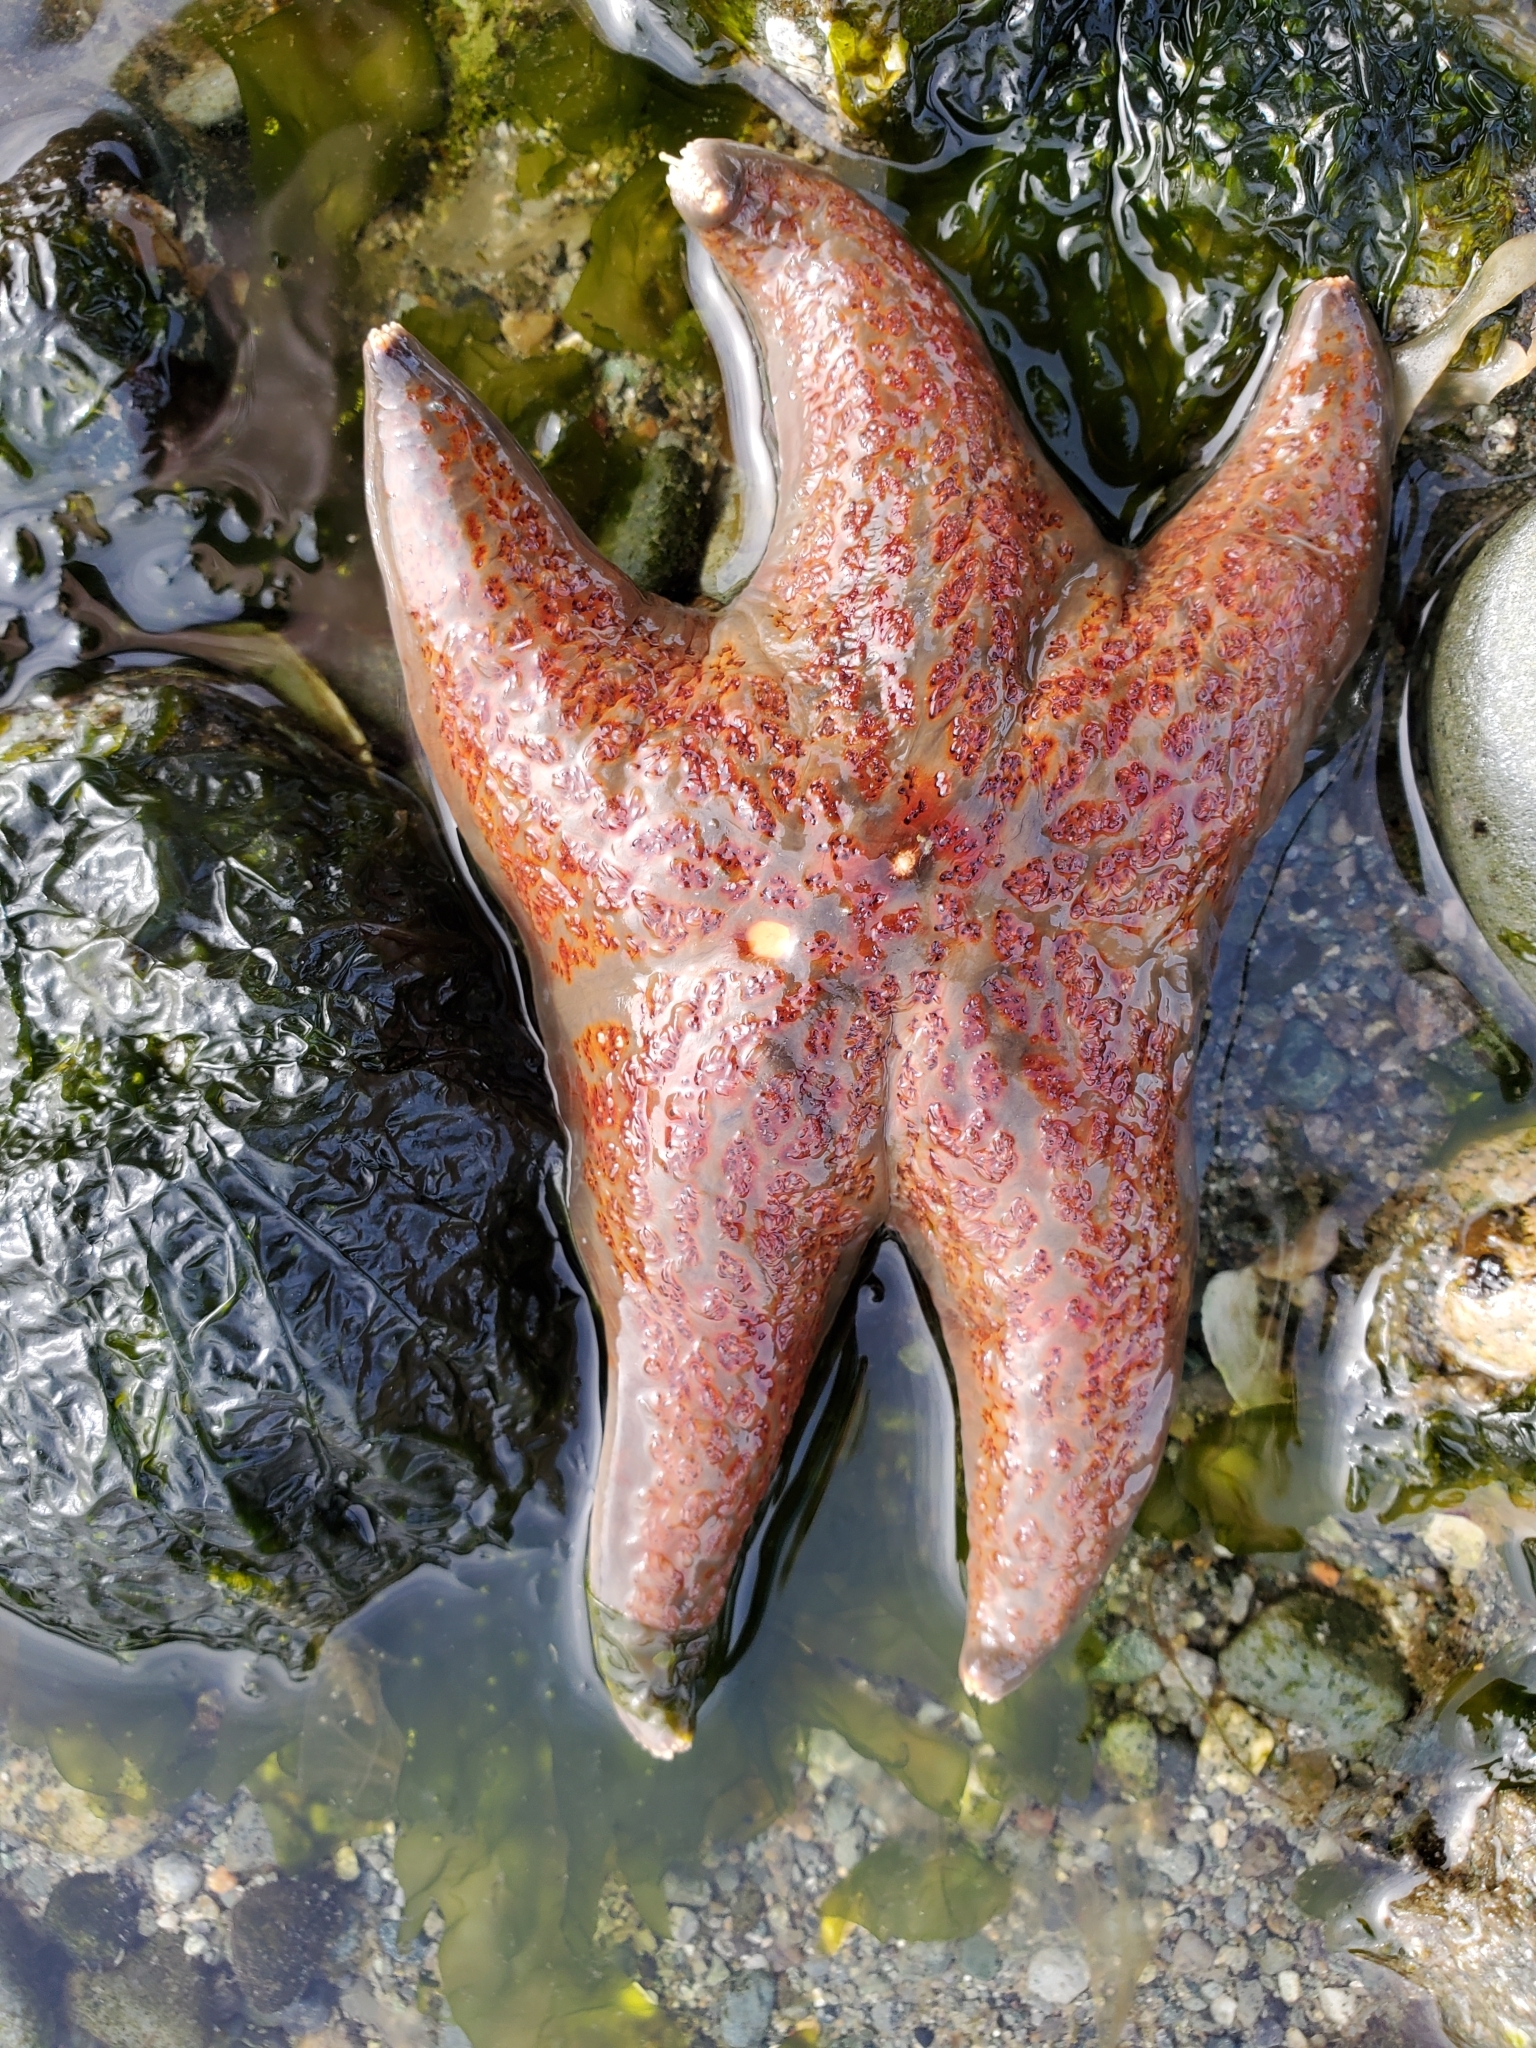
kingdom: Animalia
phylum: Echinodermata
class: Asteroidea
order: Valvatida
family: Asteropseidae
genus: Dermasterias
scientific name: Dermasterias imbricata
